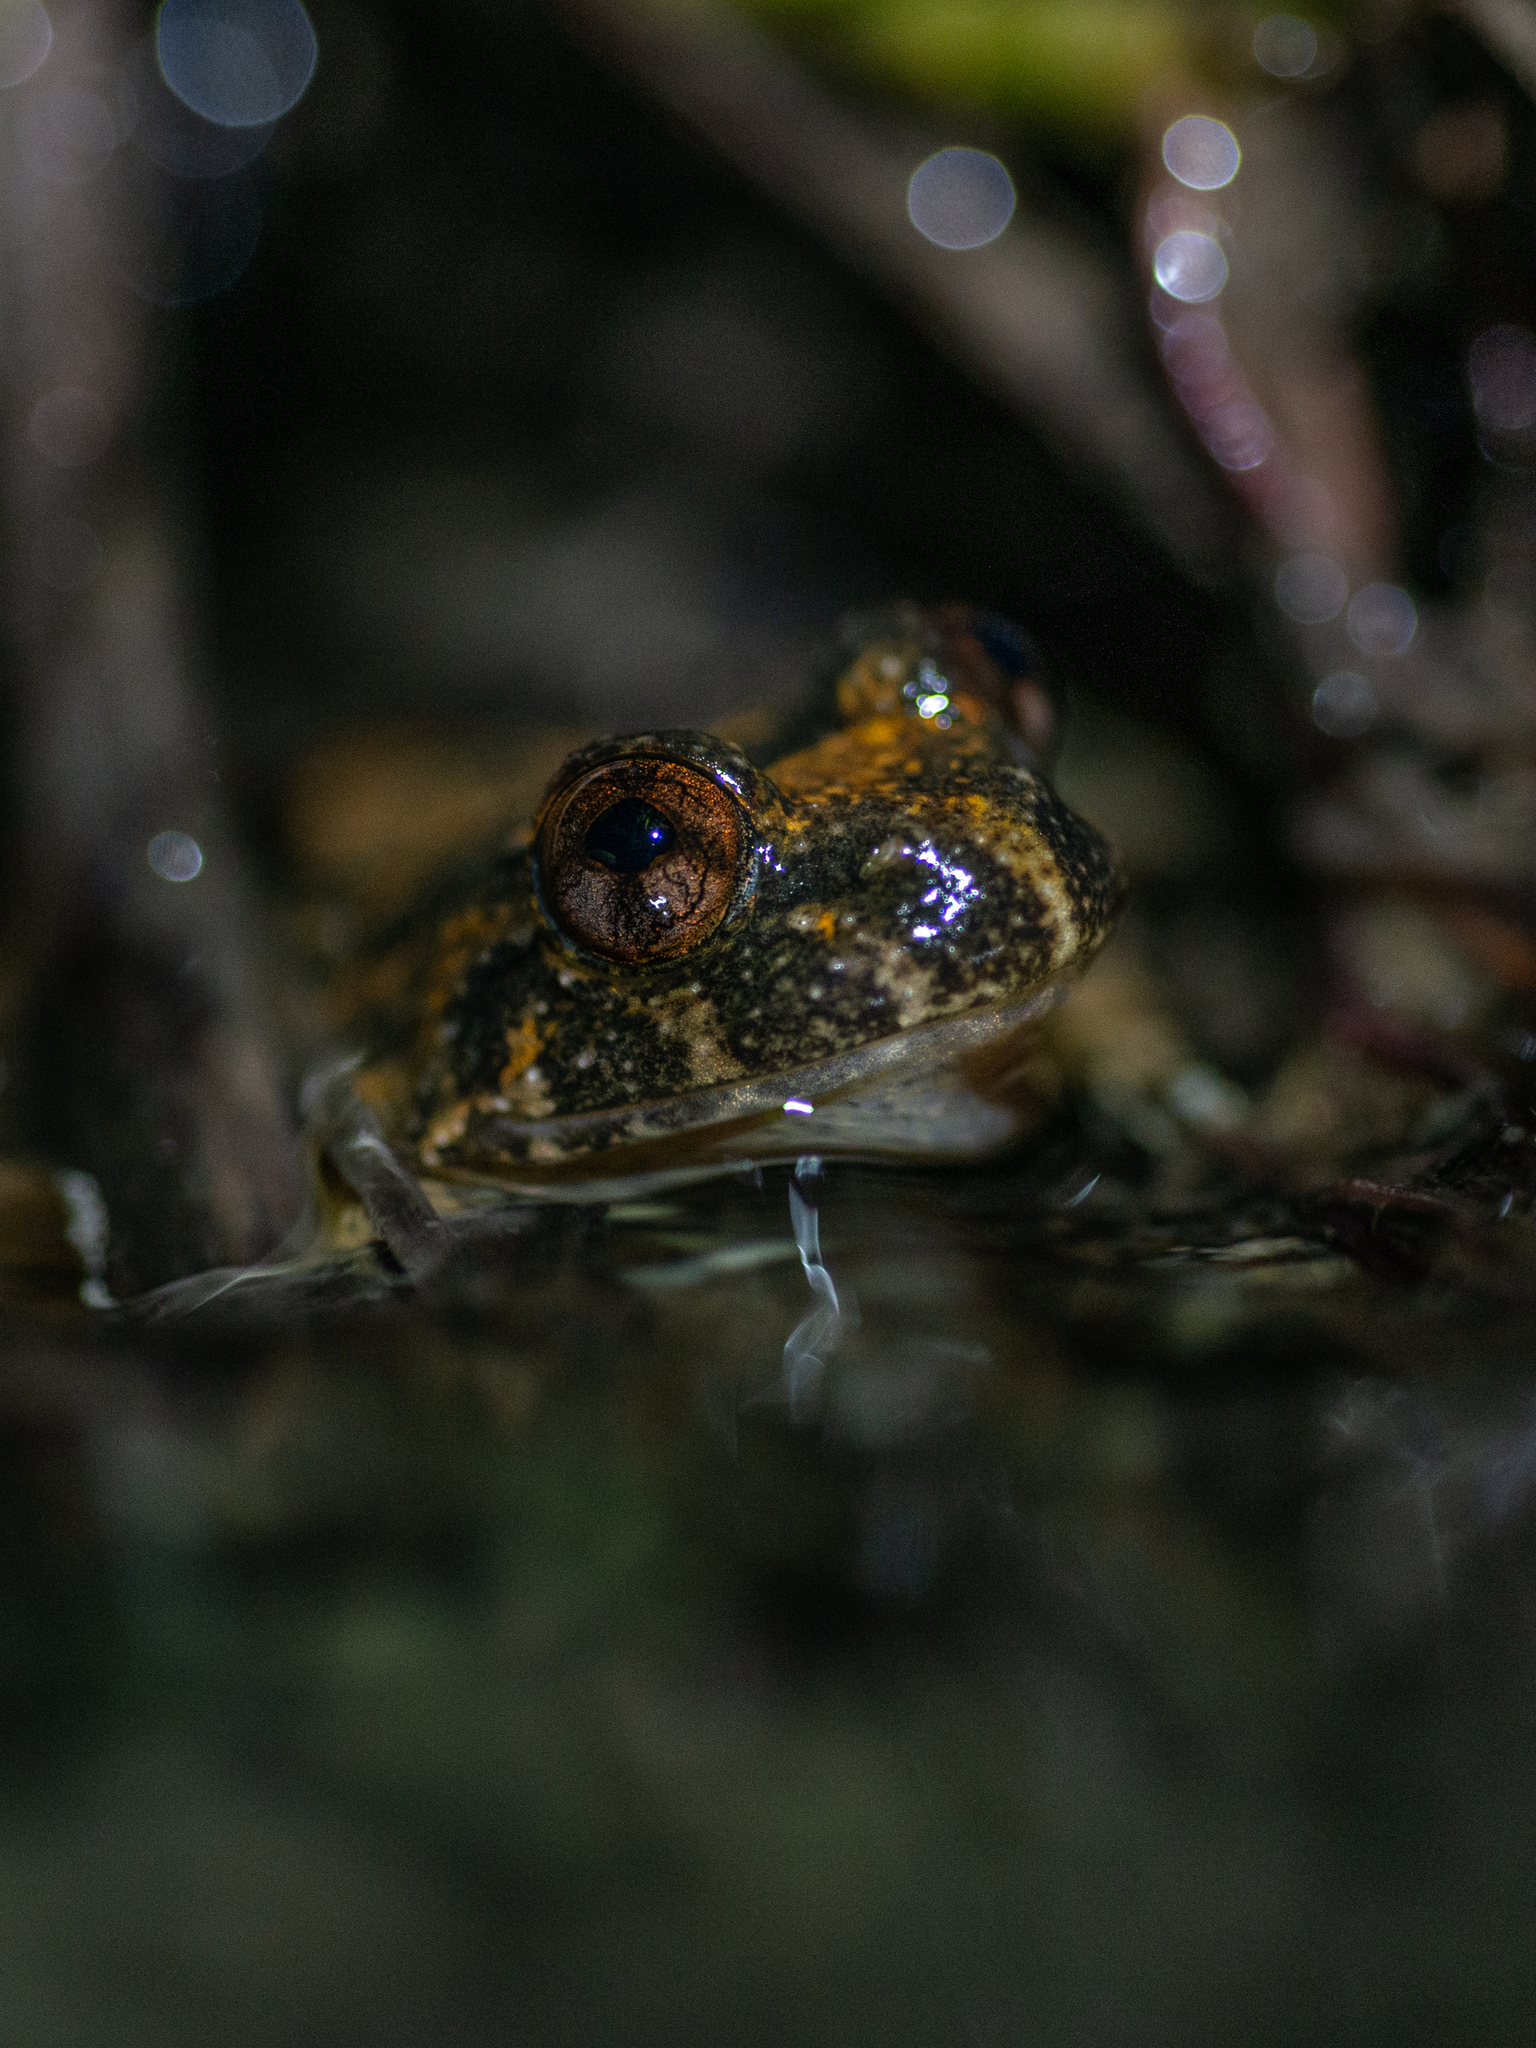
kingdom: Animalia
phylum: Chordata
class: Amphibia
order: Anura
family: Dicroglossidae
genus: Quasipaa
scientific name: Quasipaa exilispinosa
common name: Hong kong paa frog
